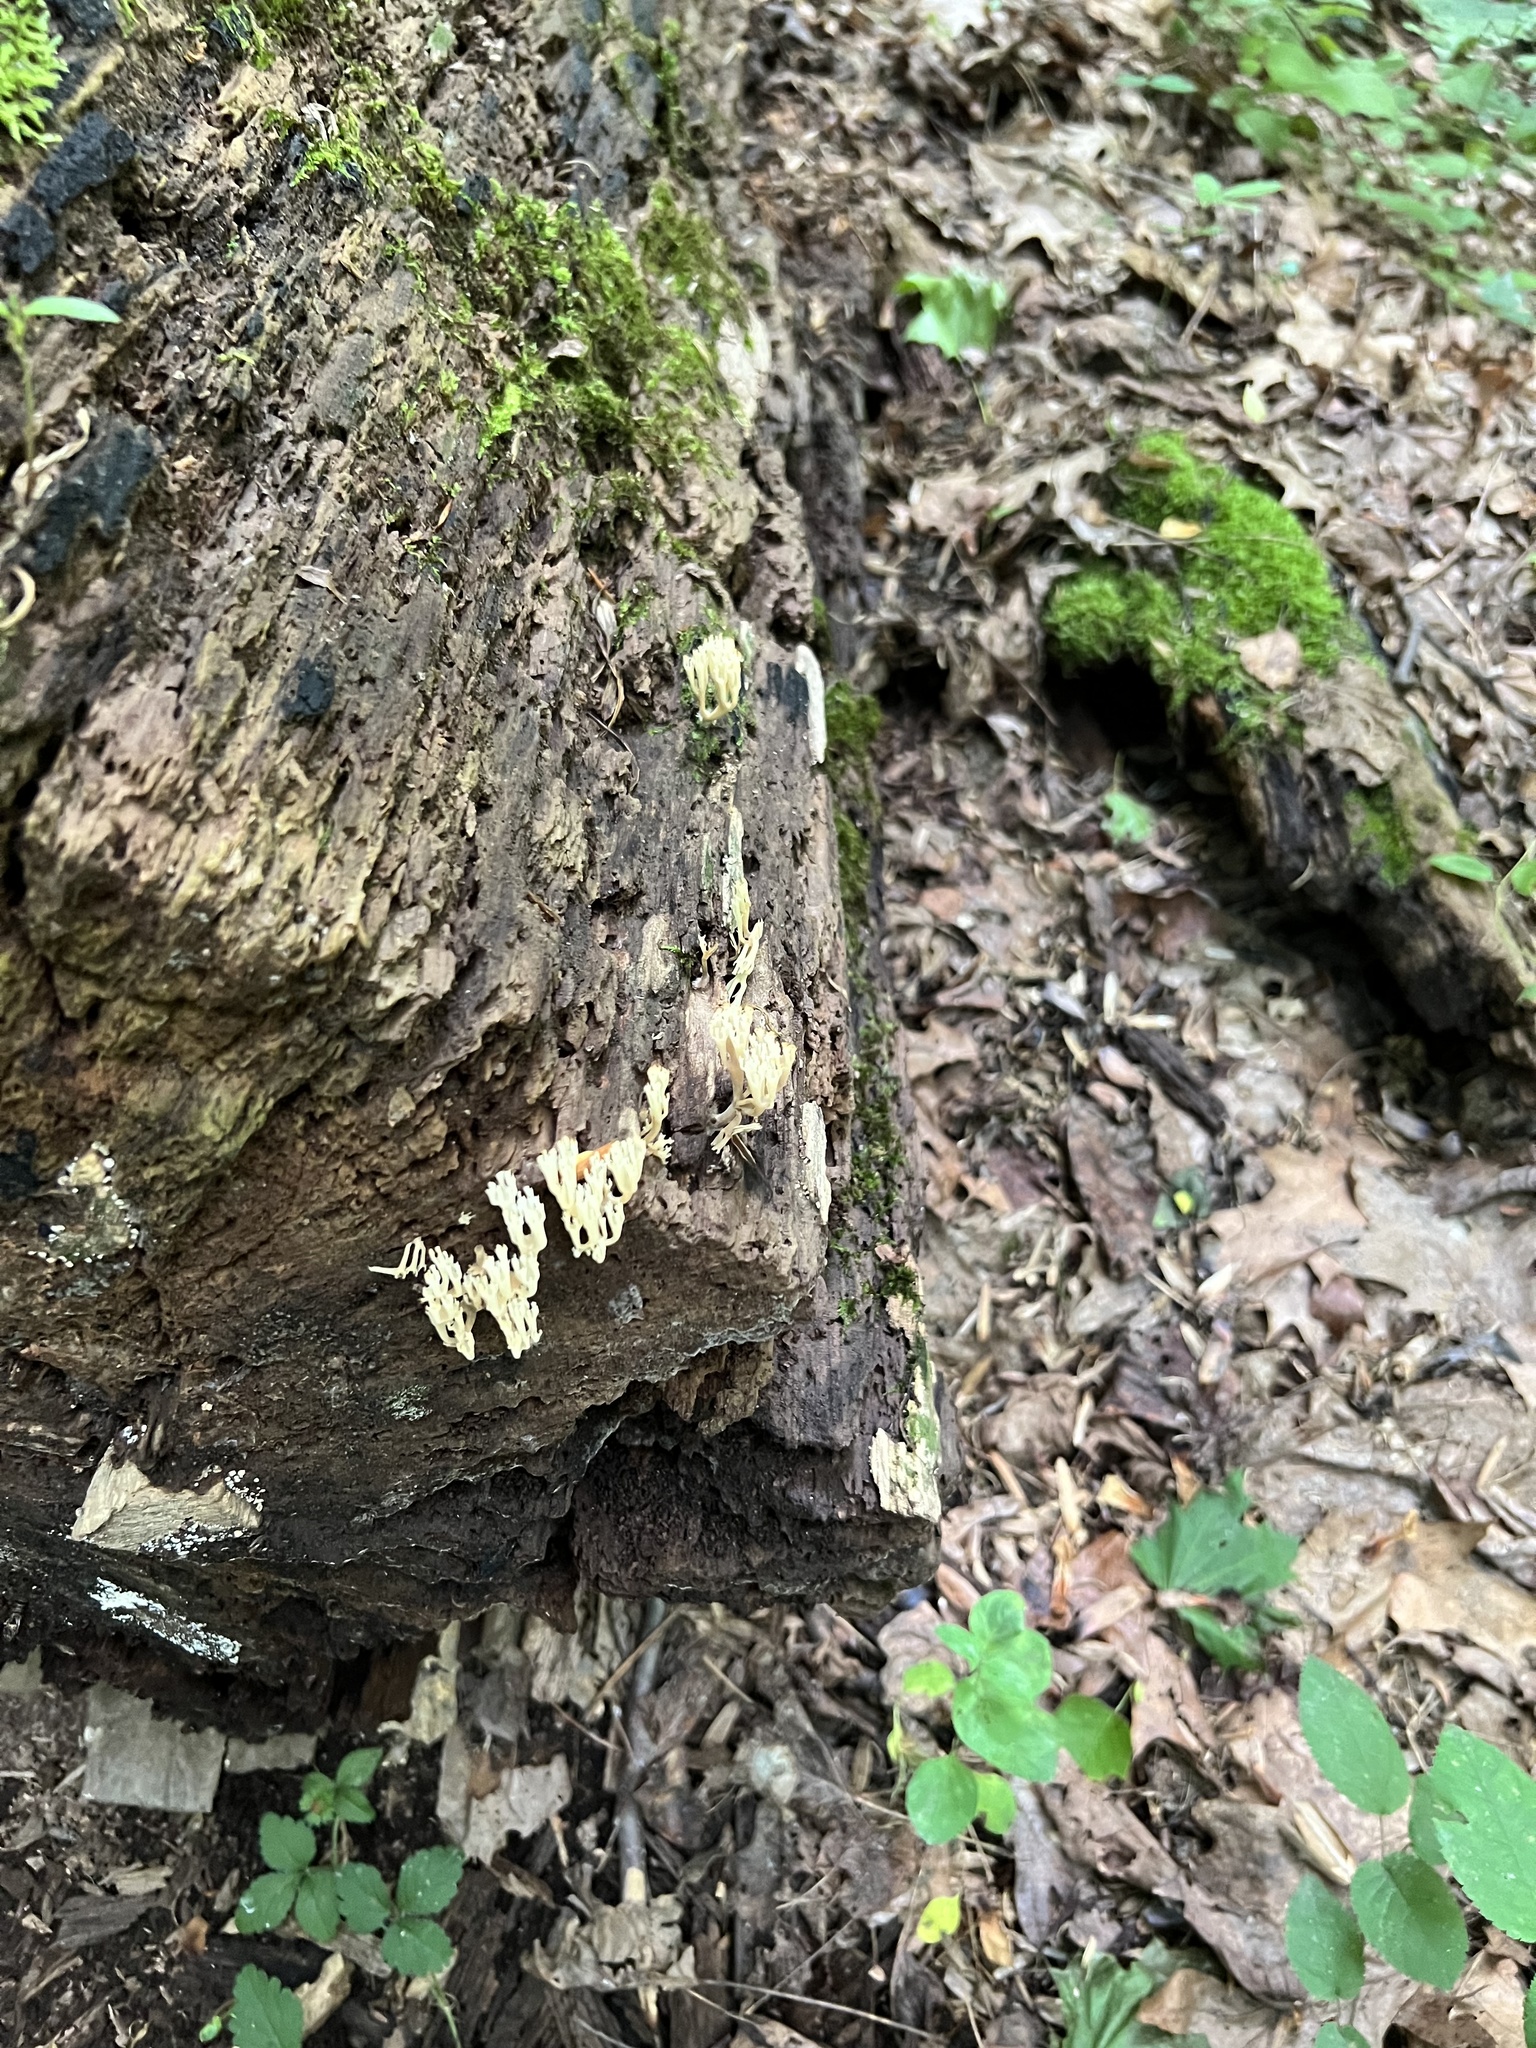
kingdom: Fungi
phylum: Basidiomycota
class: Agaricomycetes
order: Russulales
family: Auriscalpiaceae
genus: Artomyces
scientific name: Artomyces pyxidatus
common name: Crown-tipped coral fungus
